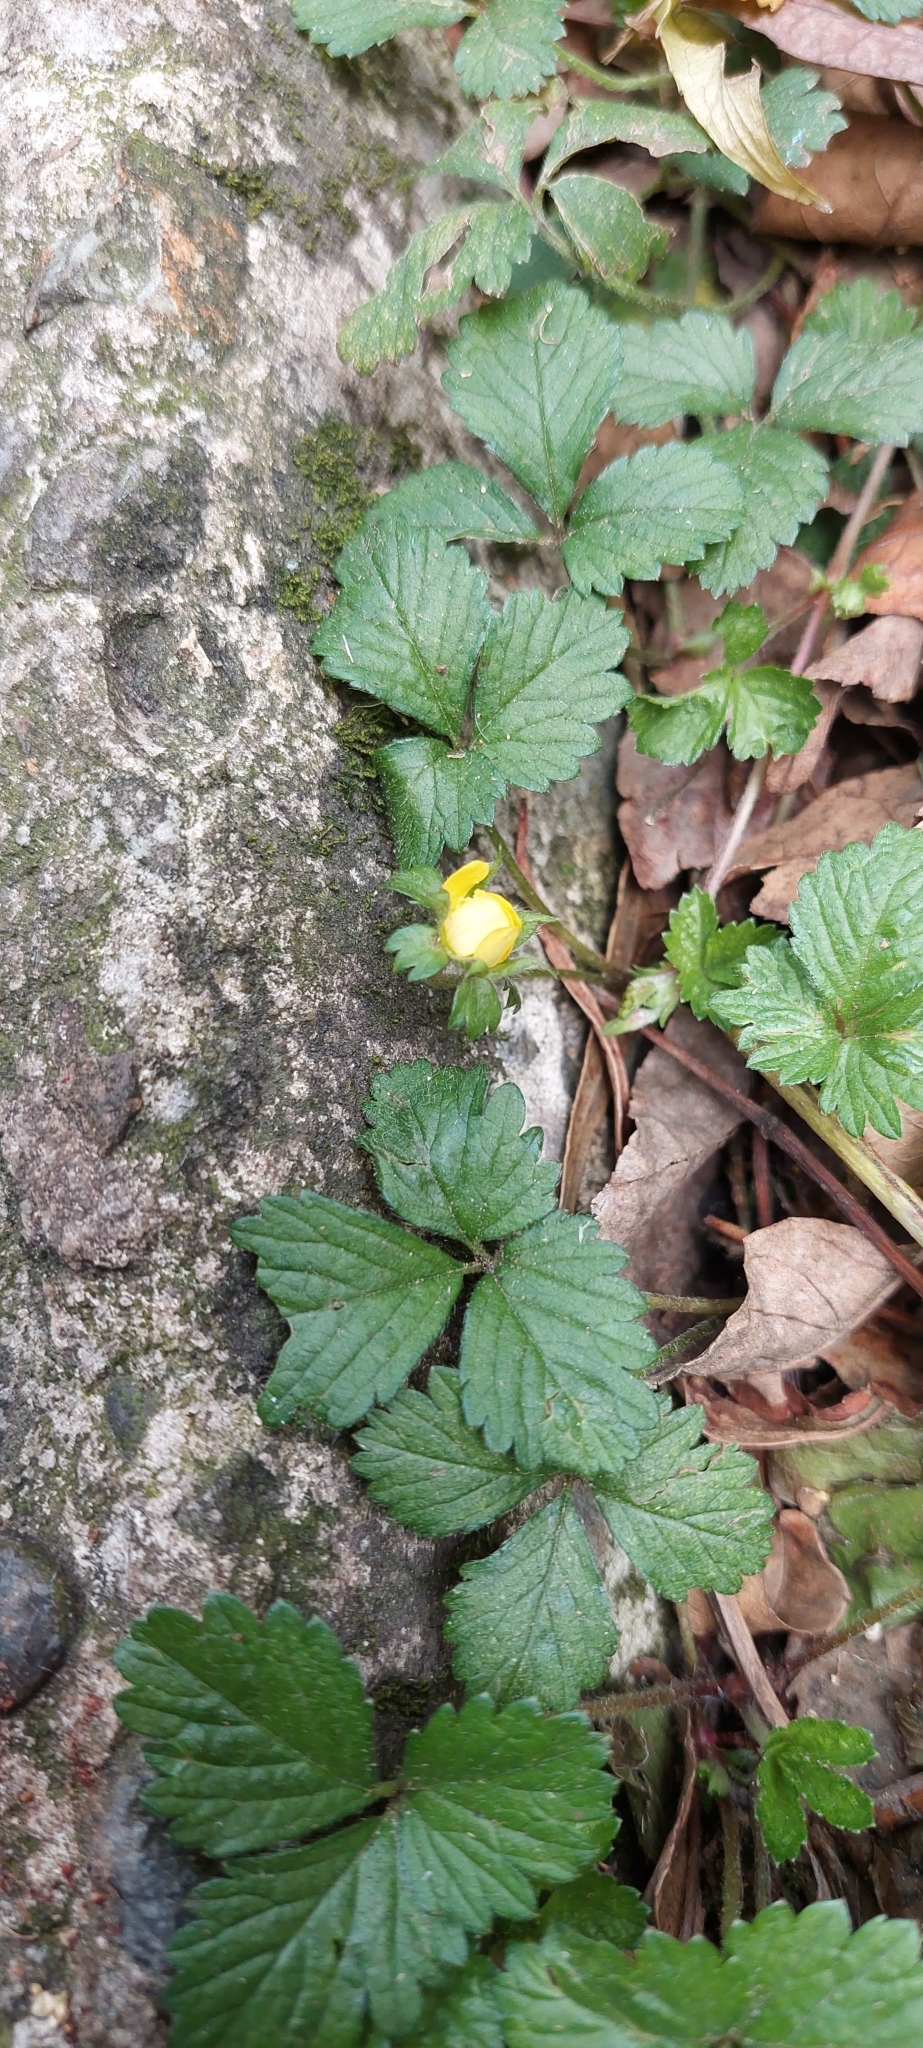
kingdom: Plantae
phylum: Tracheophyta
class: Magnoliopsida
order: Rosales
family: Rosaceae
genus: Potentilla
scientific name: Potentilla indica
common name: Yellow-flowered strawberry
